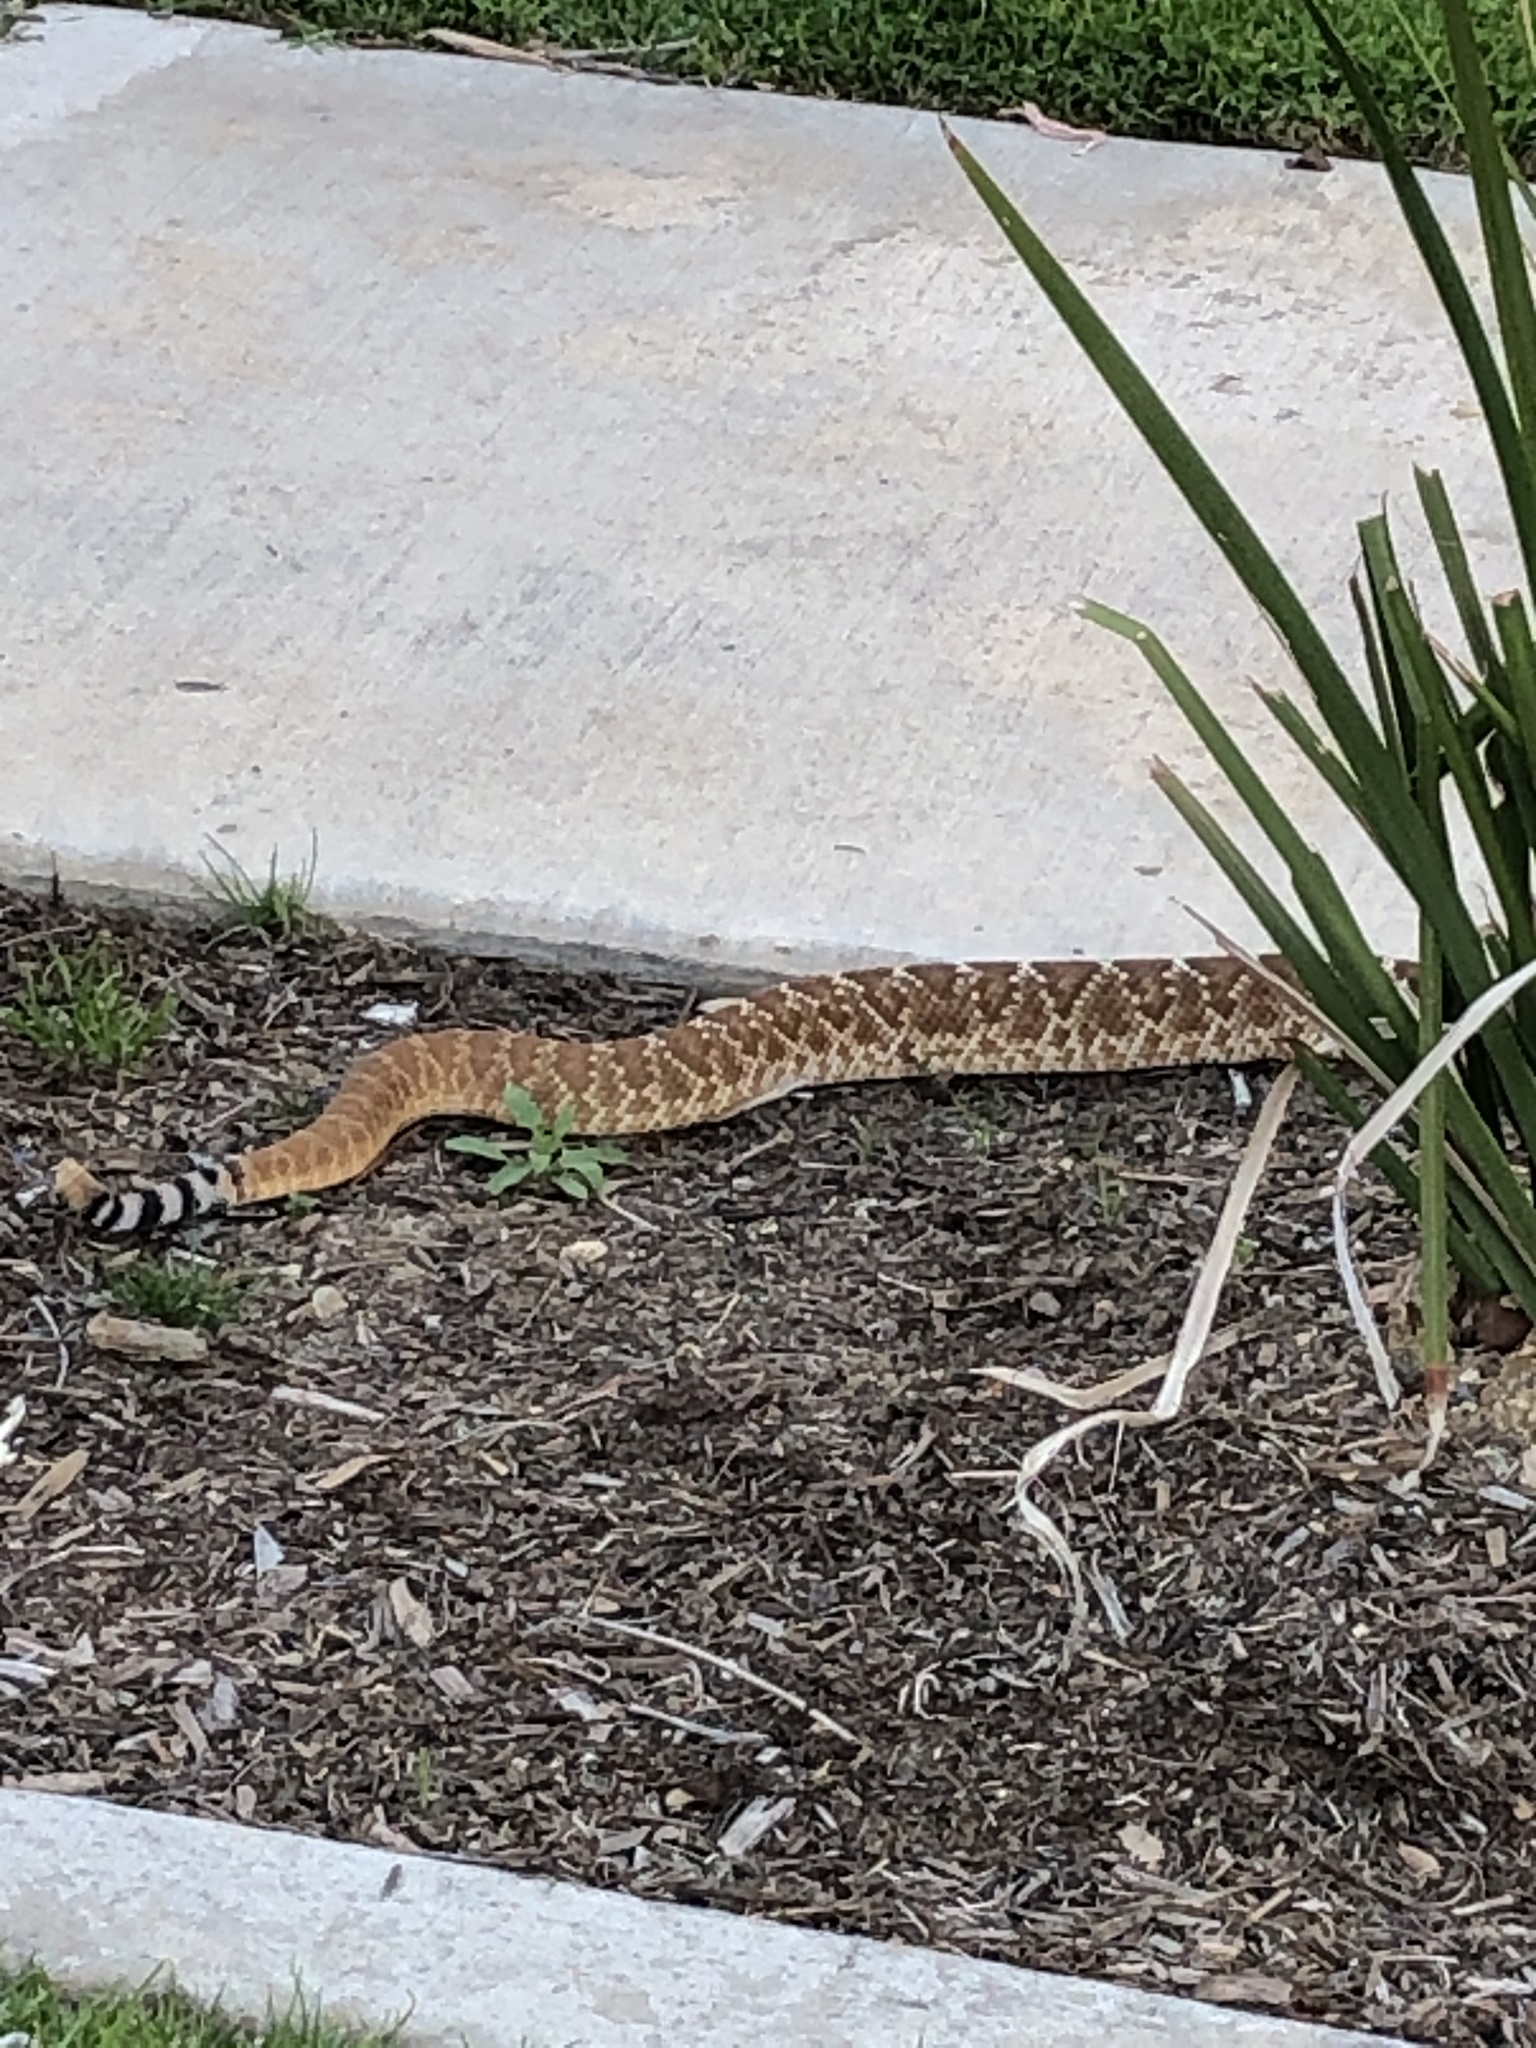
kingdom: Animalia
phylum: Chordata
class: Squamata
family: Viperidae
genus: Crotalus
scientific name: Crotalus ruber
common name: Red diamond rattlesnake
